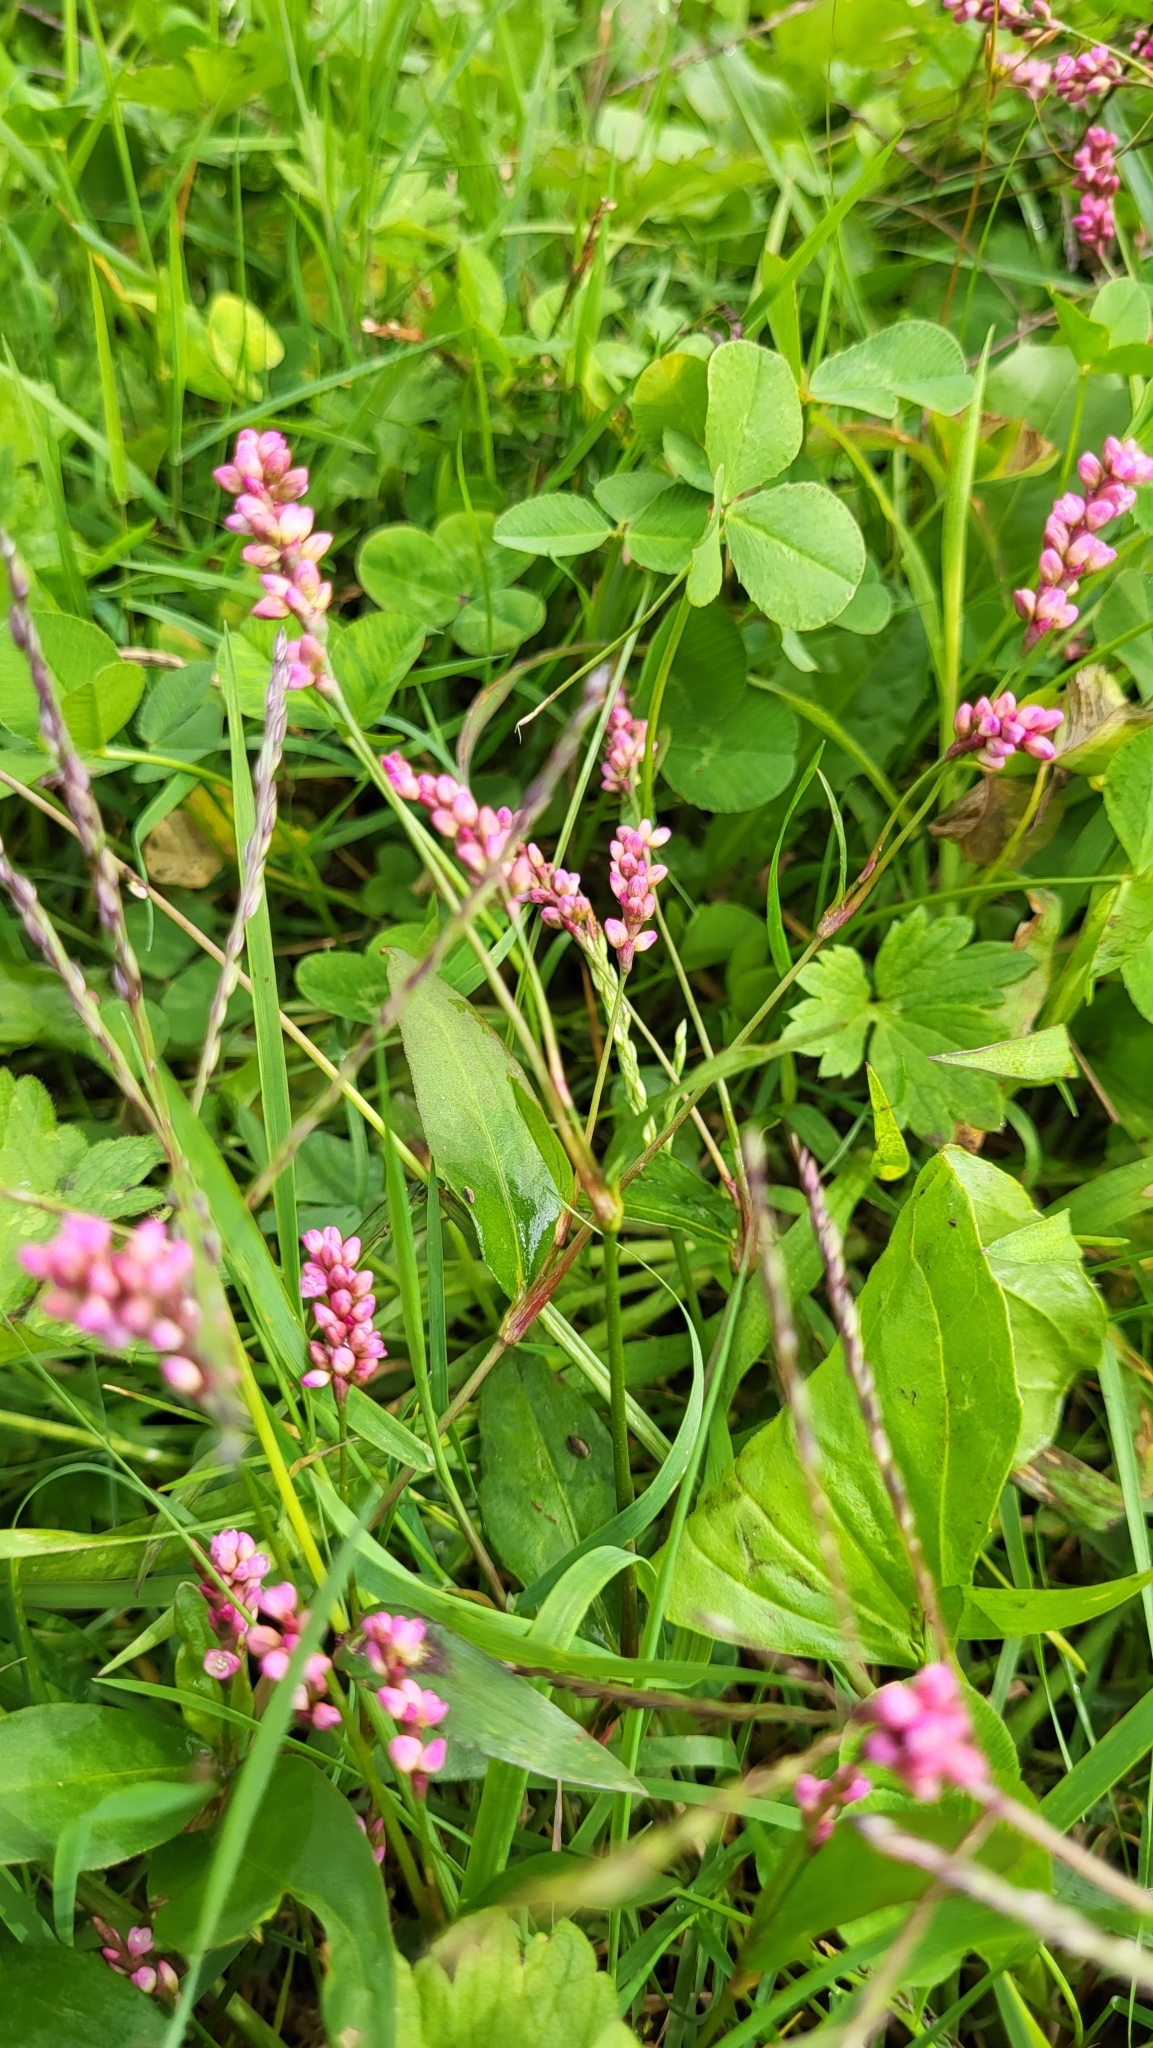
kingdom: Plantae
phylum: Tracheophyta
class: Magnoliopsida
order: Caryophyllales
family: Polygonaceae
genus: Persicaria
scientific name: Persicaria longiseta
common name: Bristly lady's-thumb
